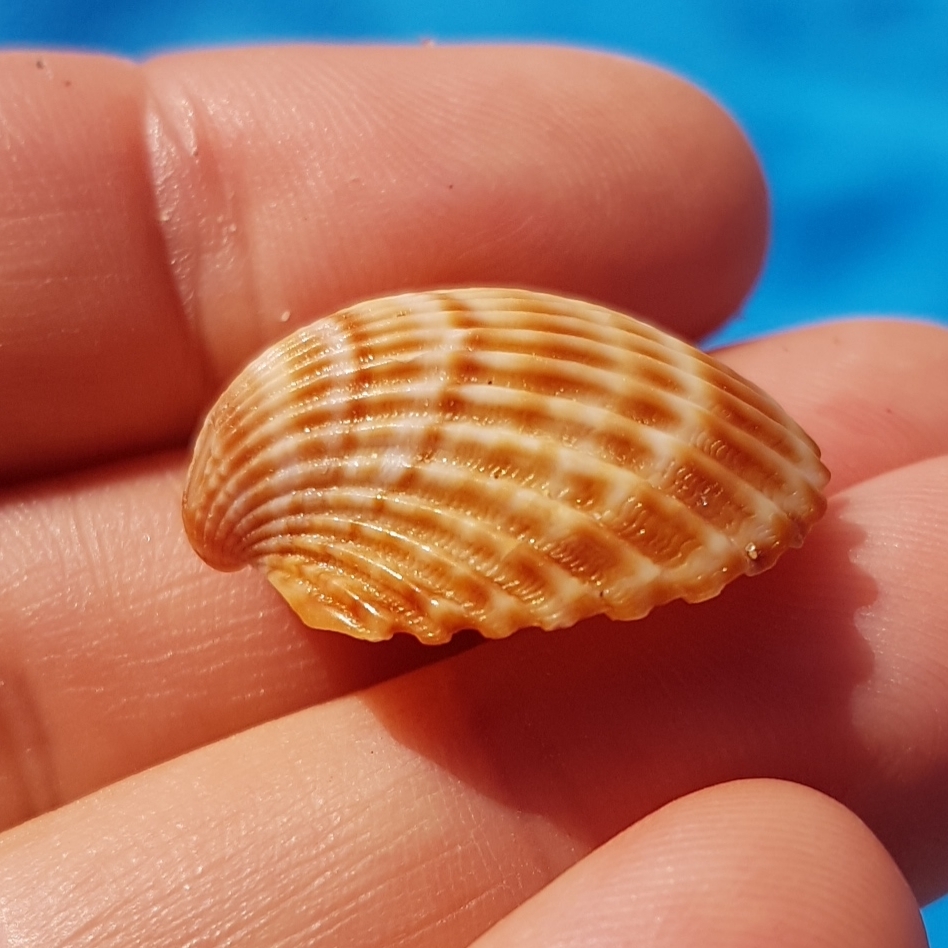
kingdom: Animalia
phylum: Mollusca
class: Bivalvia
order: Cardiida
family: Cardiidae
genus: Acanthocardia
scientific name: Acanthocardia tuberculata
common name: Rough cockle
